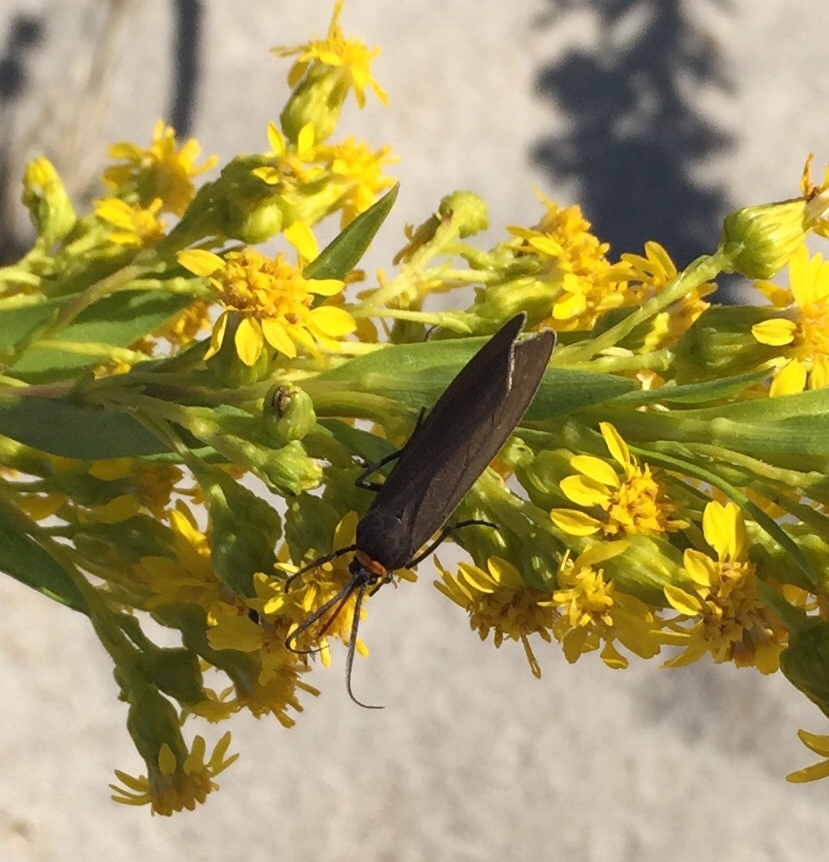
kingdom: Animalia
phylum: Arthropoda
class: Insecta
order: Lepidoptera
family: Erebidae
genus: Cisseps
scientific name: Cisseps fulvicollis
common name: Yellow-collared scape moth
